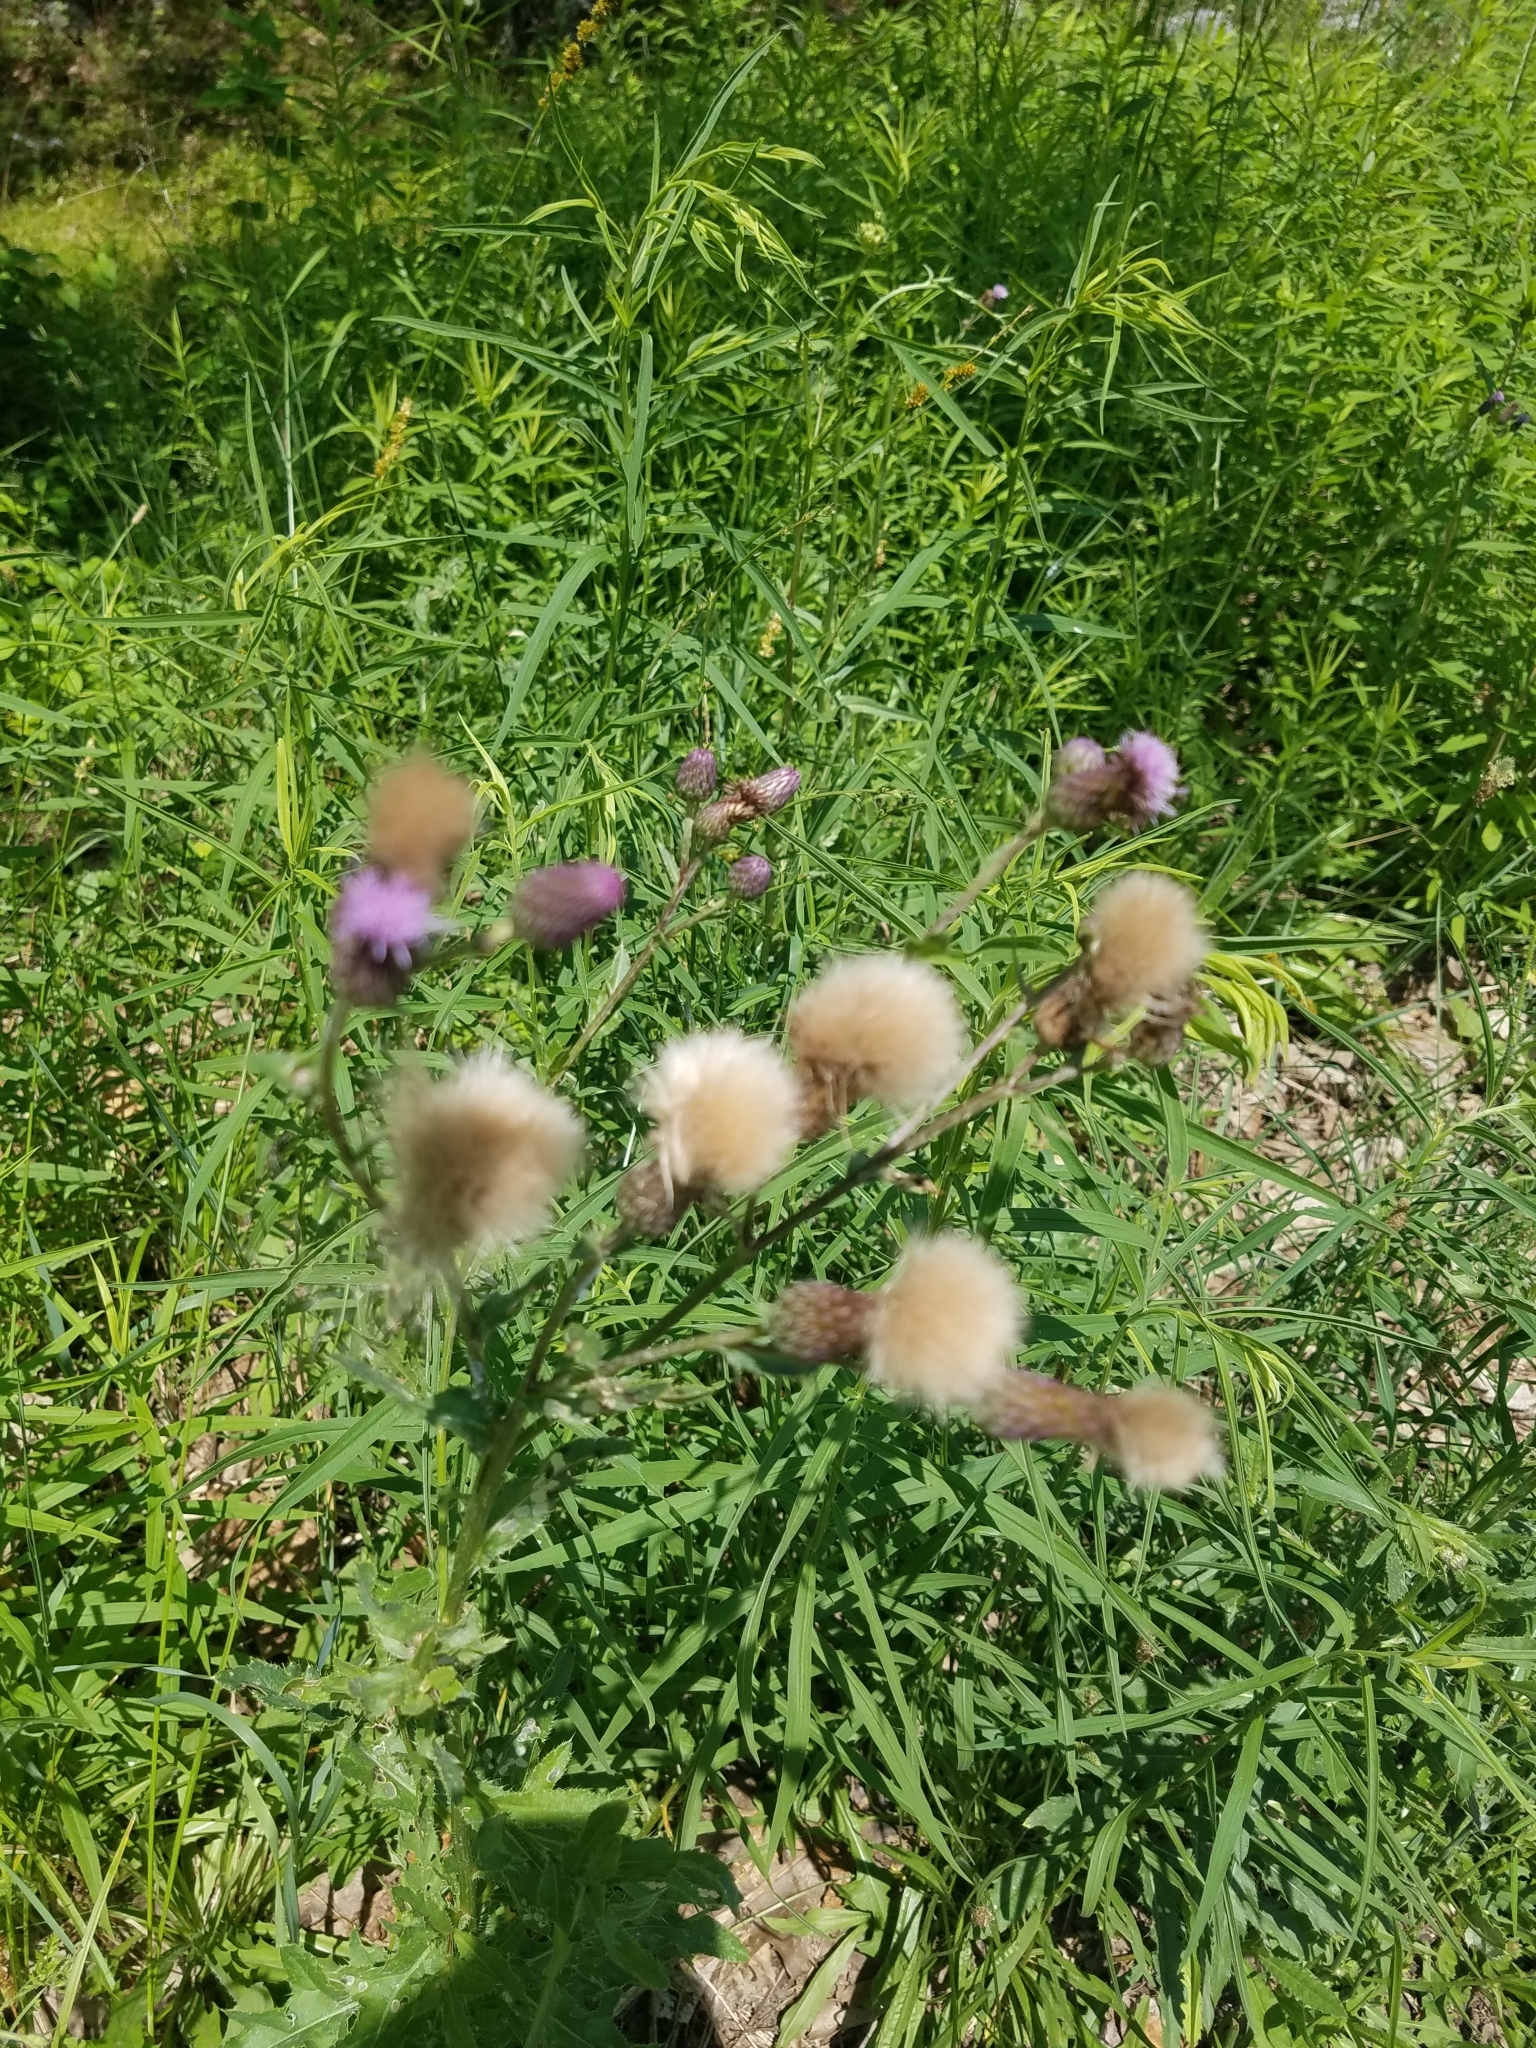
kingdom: Plantae
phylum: Tracheophyta
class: Magnoliopsida
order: Asterales
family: Asteraceae
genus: Cirsium
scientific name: Cirsium arvense
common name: Creeping thistle
